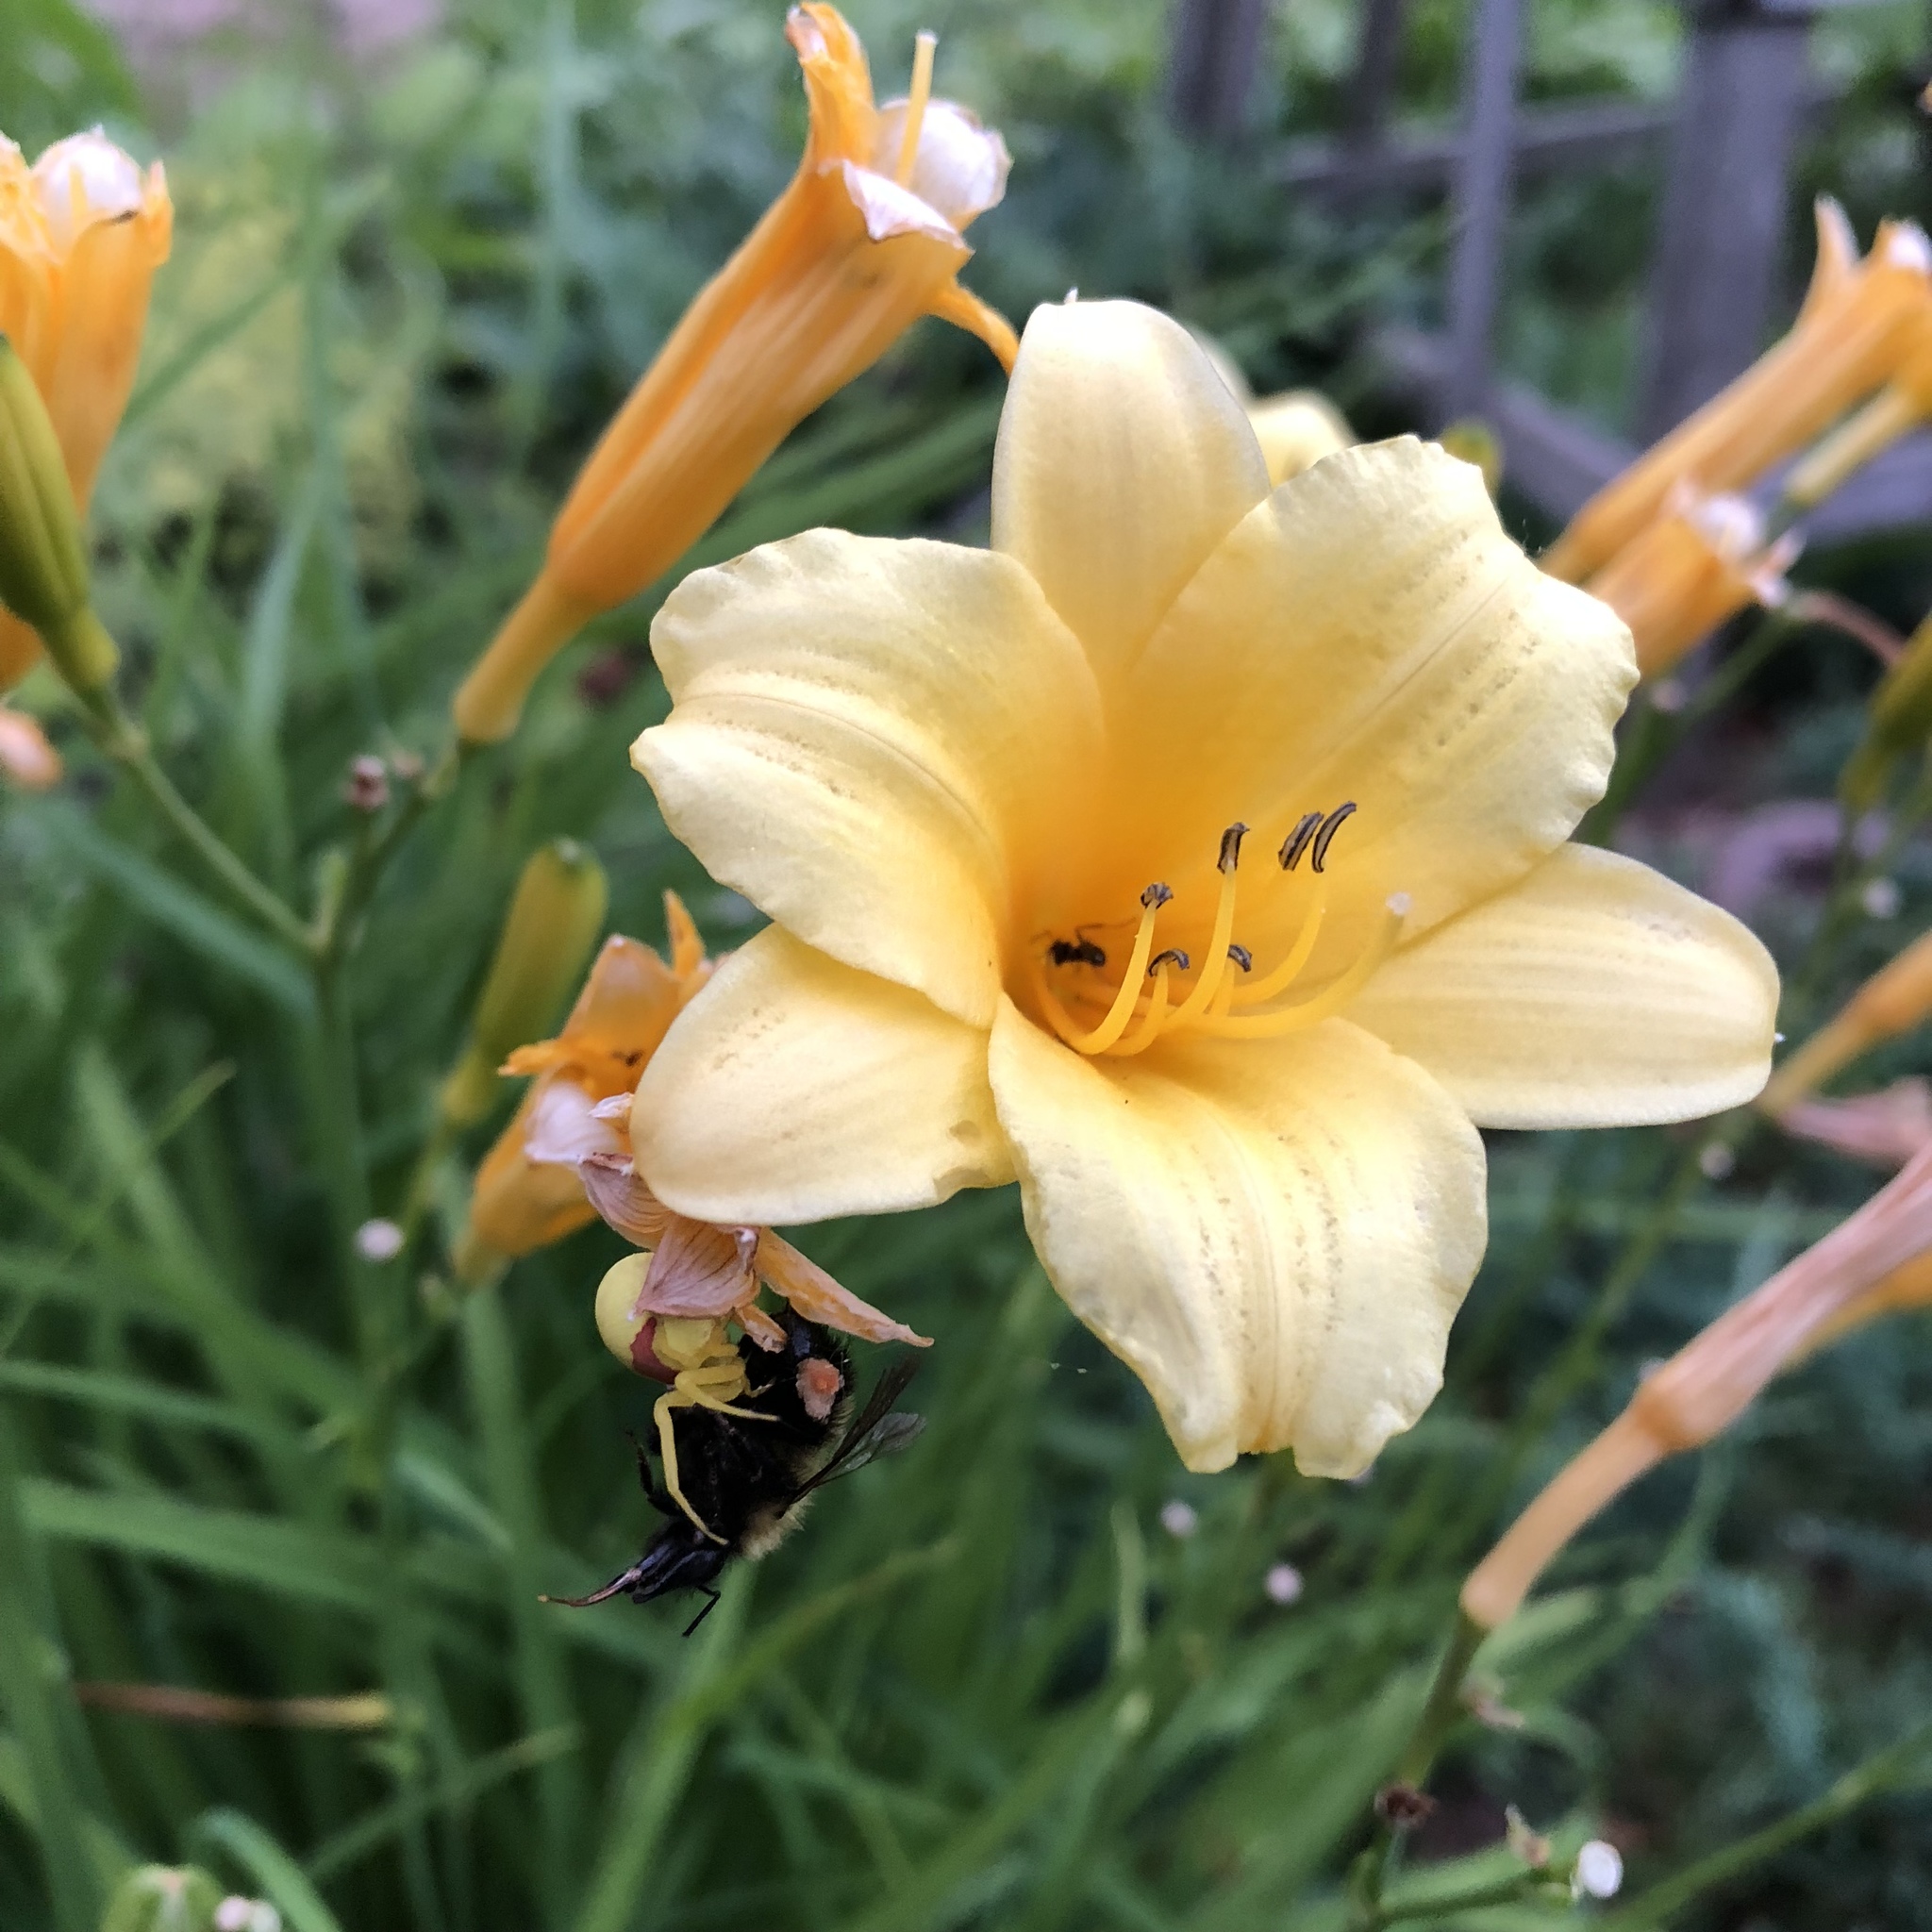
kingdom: Animalia
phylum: Arthropoda
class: Arachnida
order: Araneae
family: Thomisidae
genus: Misumena
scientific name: Misumena vatia
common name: Goldenrod crab spider
